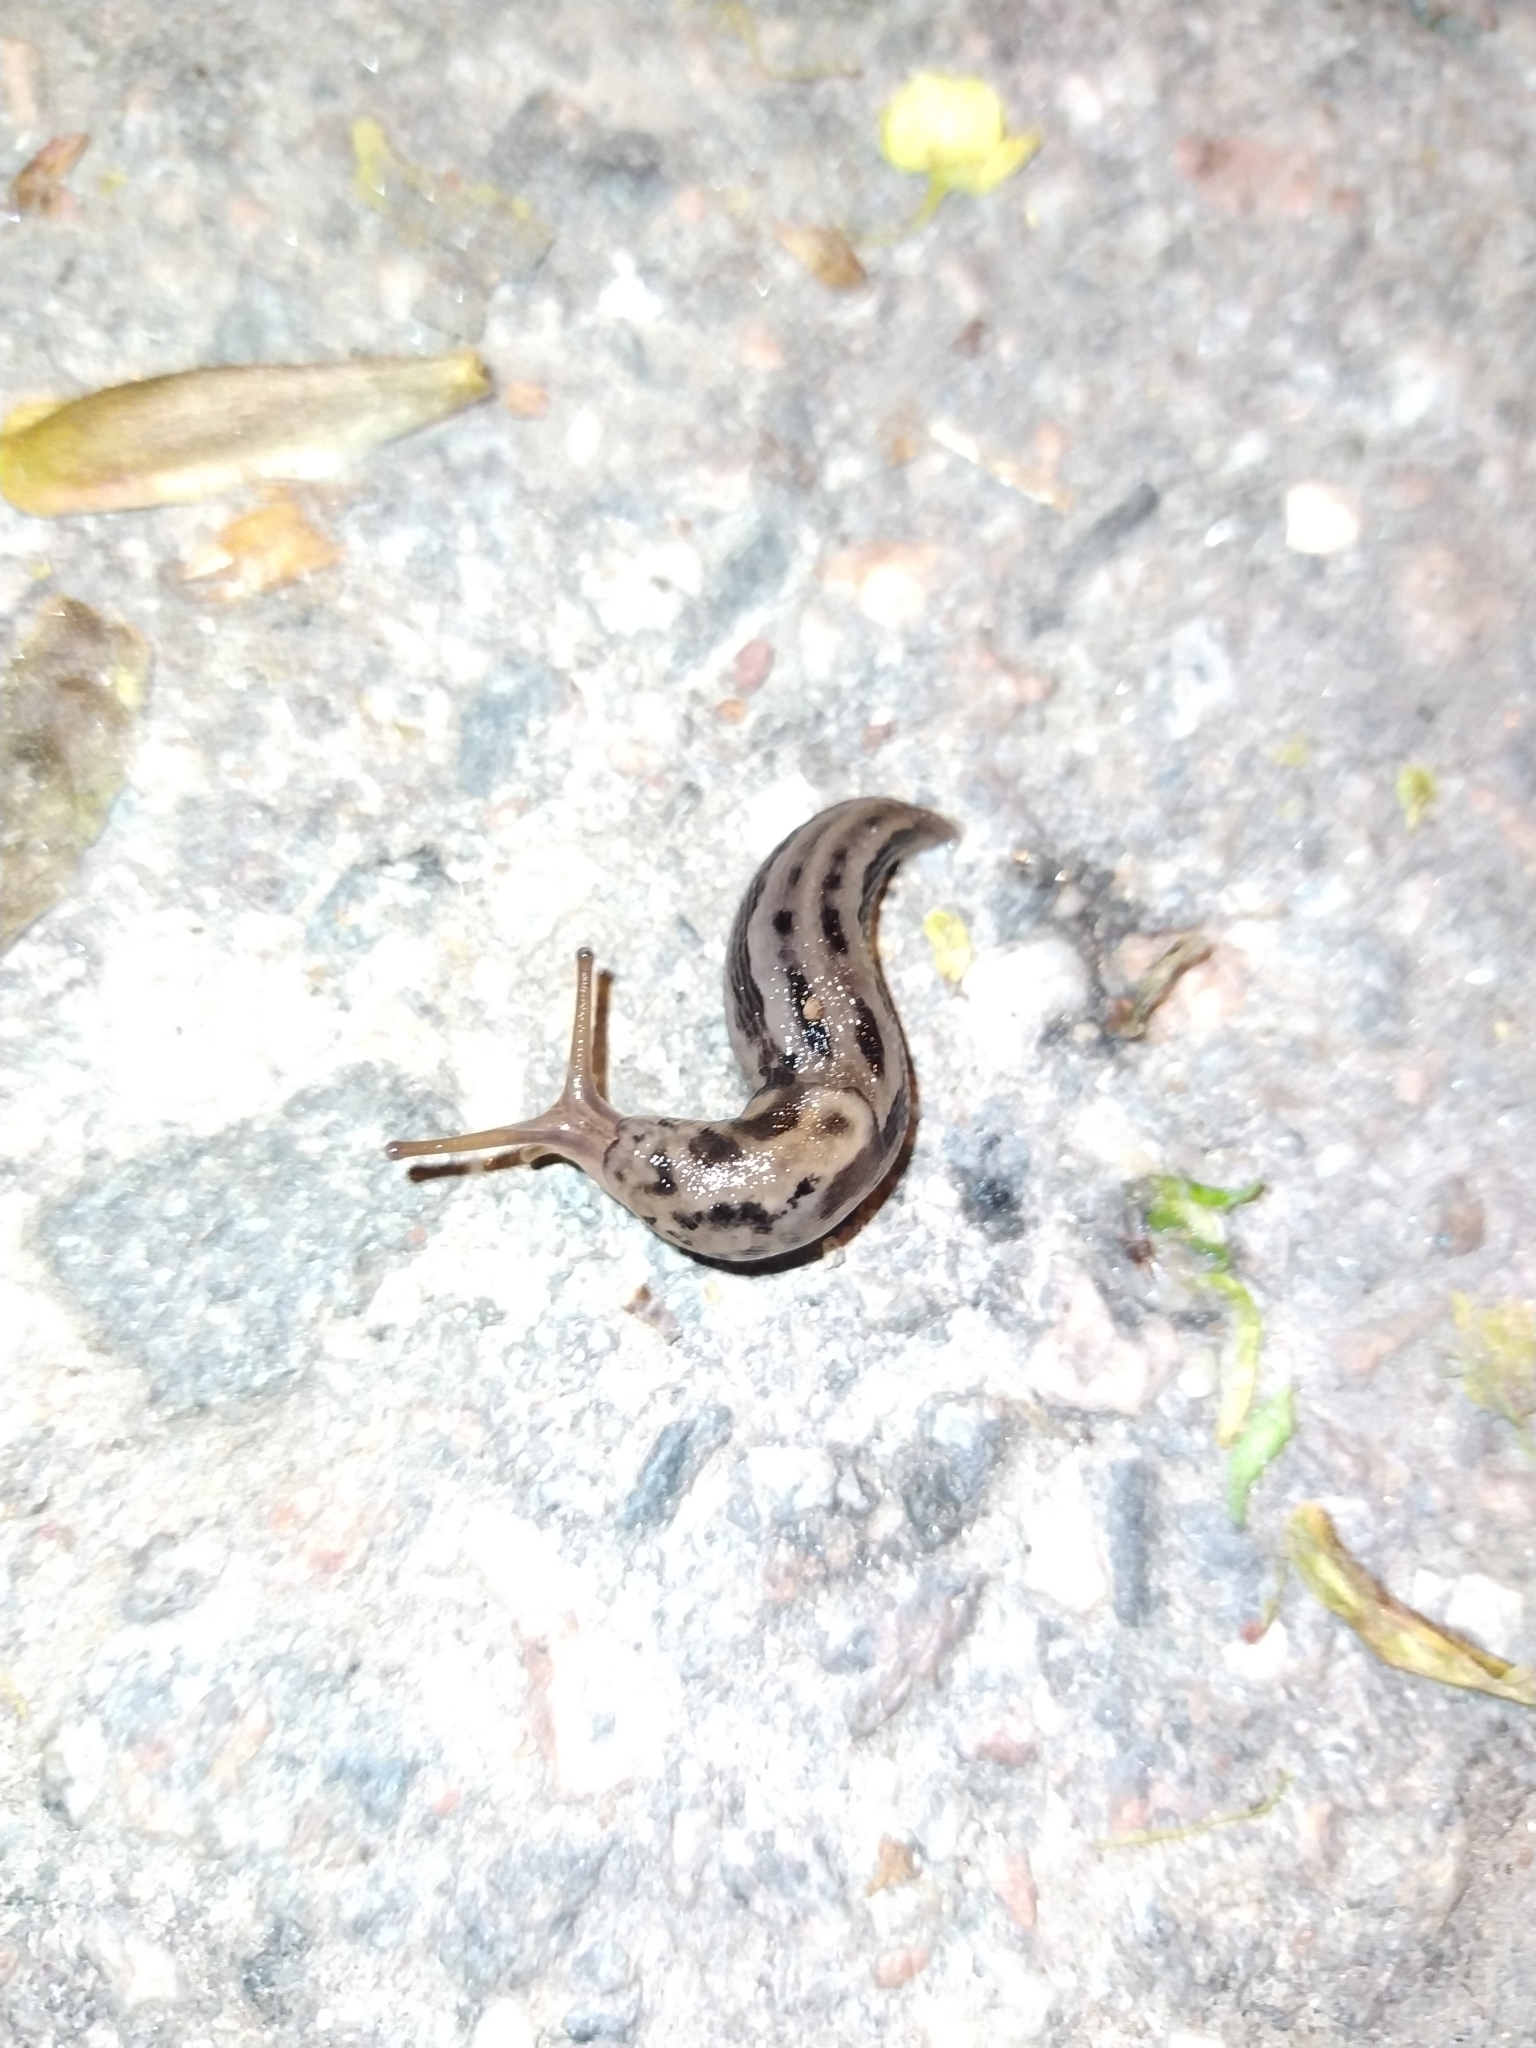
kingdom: Animalia
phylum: Mollusca
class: Gastropoda
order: Stylommatophora
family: Limacidae
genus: Limax
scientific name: Limax maximus
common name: Great grey slug
